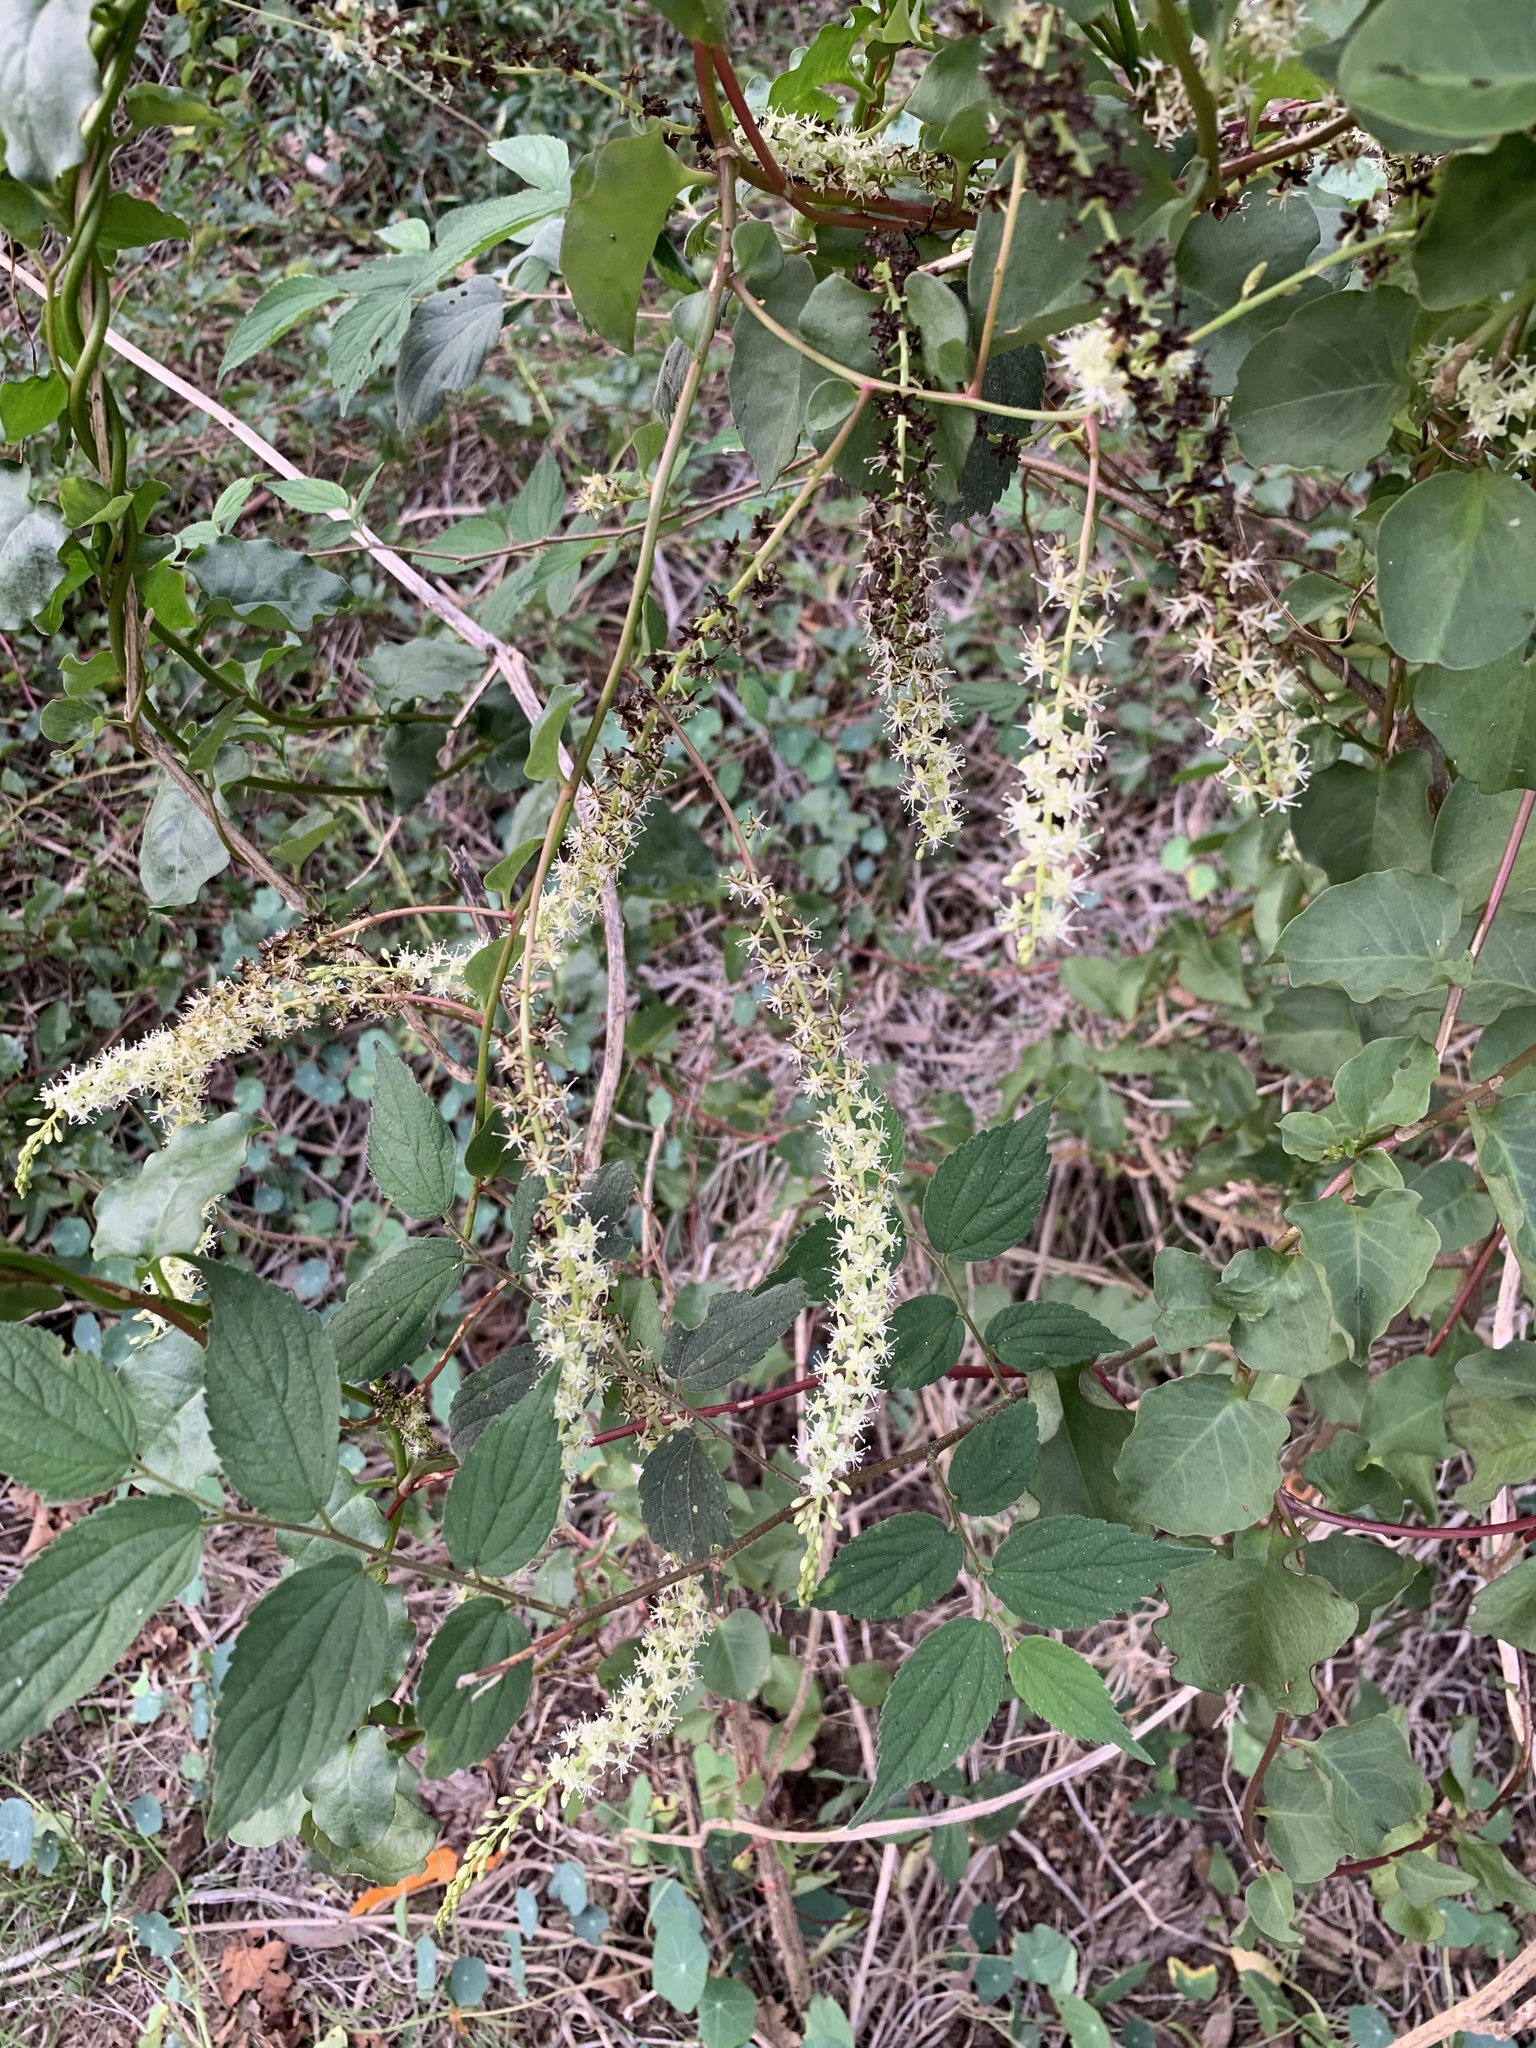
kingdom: Plantae
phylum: Tracheophyta
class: Magnoliopsida
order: Caryophyllales
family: Basellaceae
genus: Anredera
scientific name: Anredera cordifolia
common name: Heartleaf madeiravine
